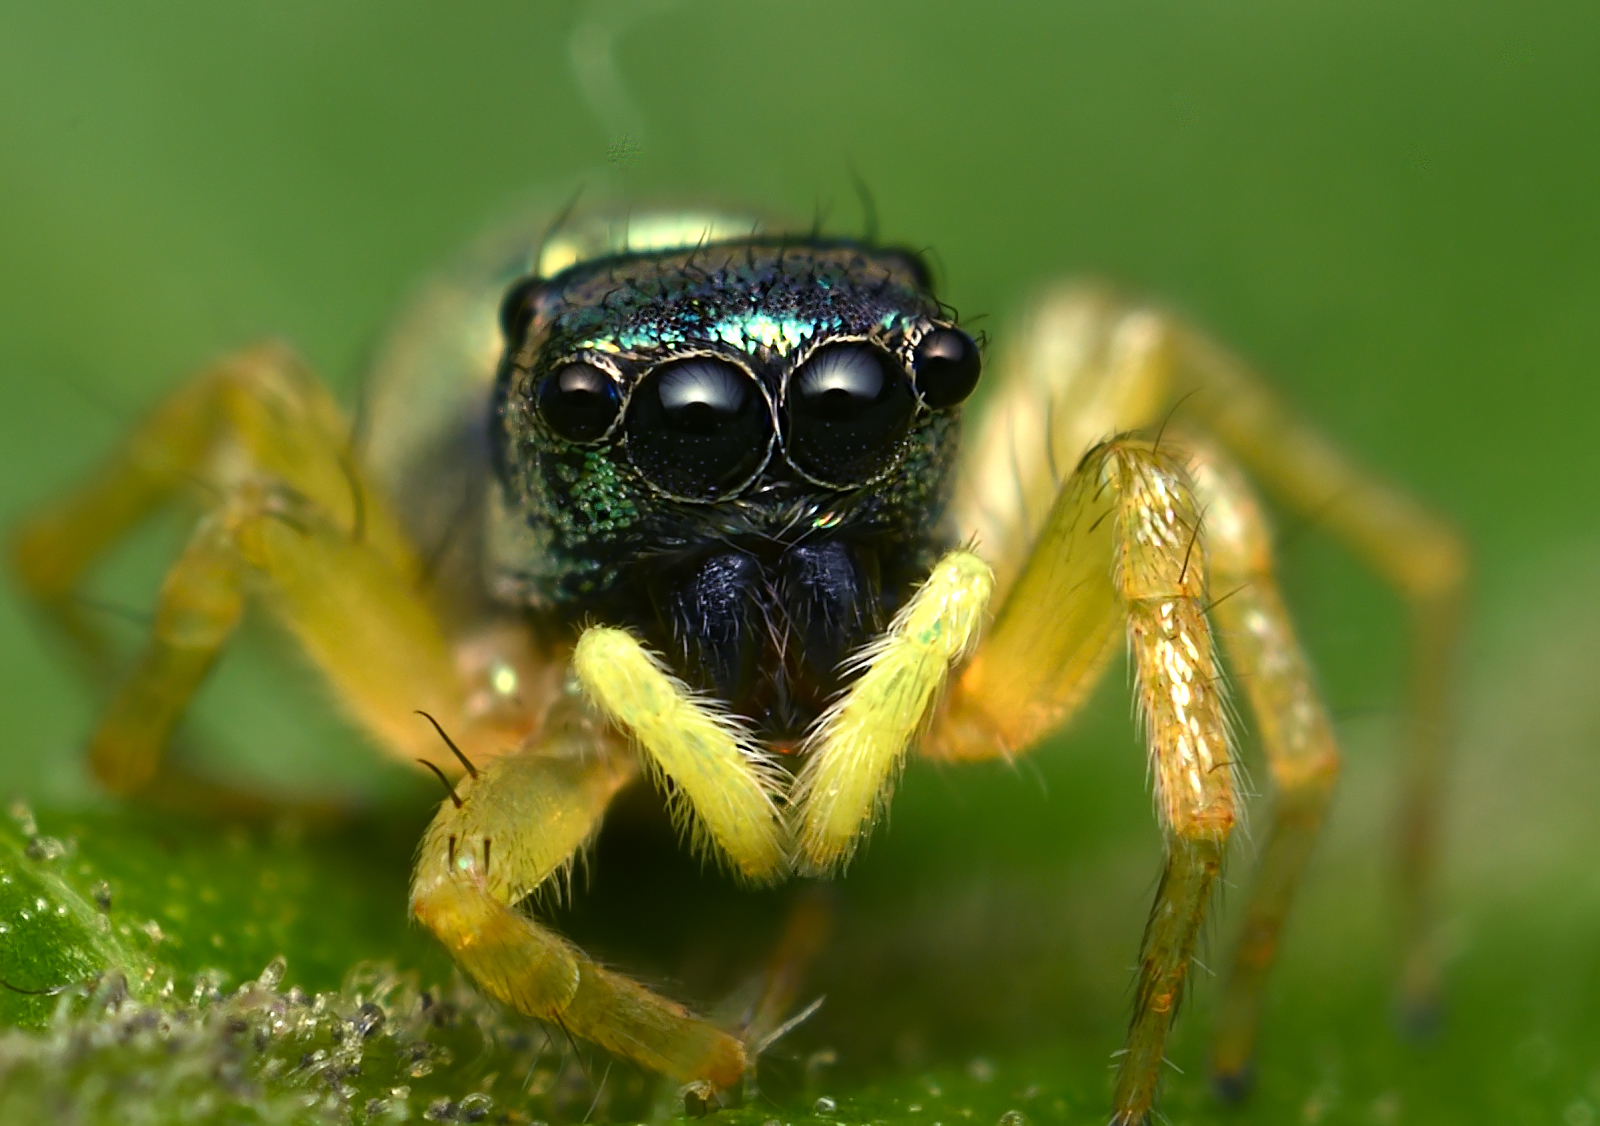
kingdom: Animalia
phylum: Arthropoda
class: Arachnida
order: Araneae
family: Salticidae
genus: Phintella
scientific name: Phintella vittata
